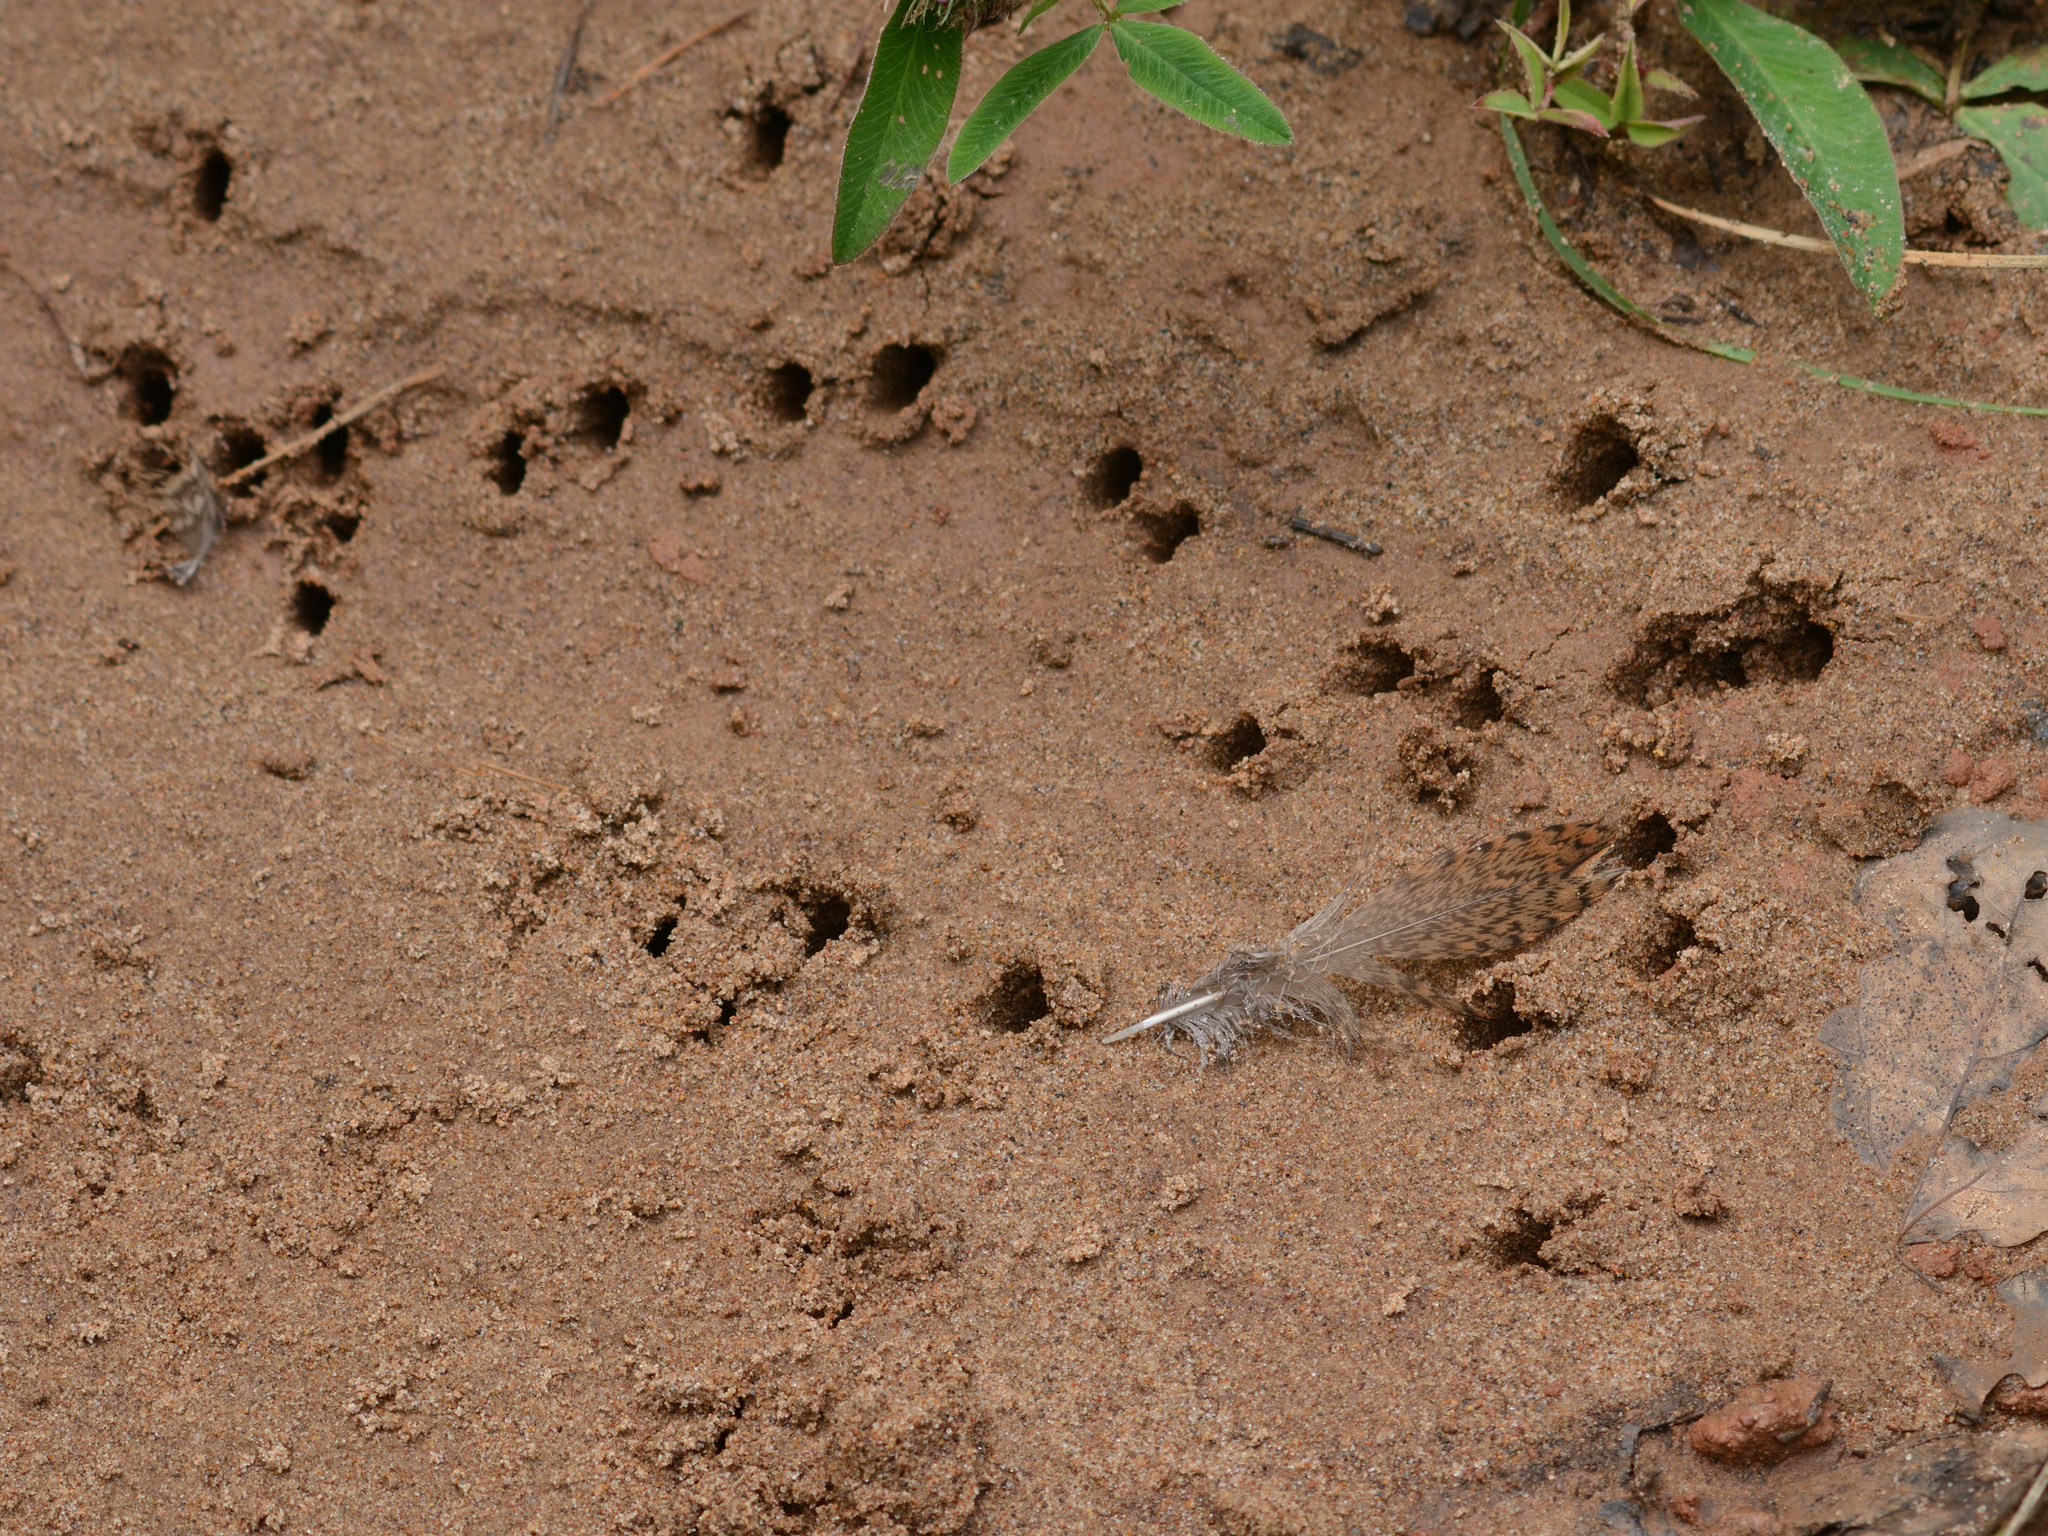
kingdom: Animalia
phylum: Chordata
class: Aves
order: Charadriiformes
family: Scolopacidae
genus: Scolopax
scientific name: Scolopax rusticola
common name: Eurasian woodcock
